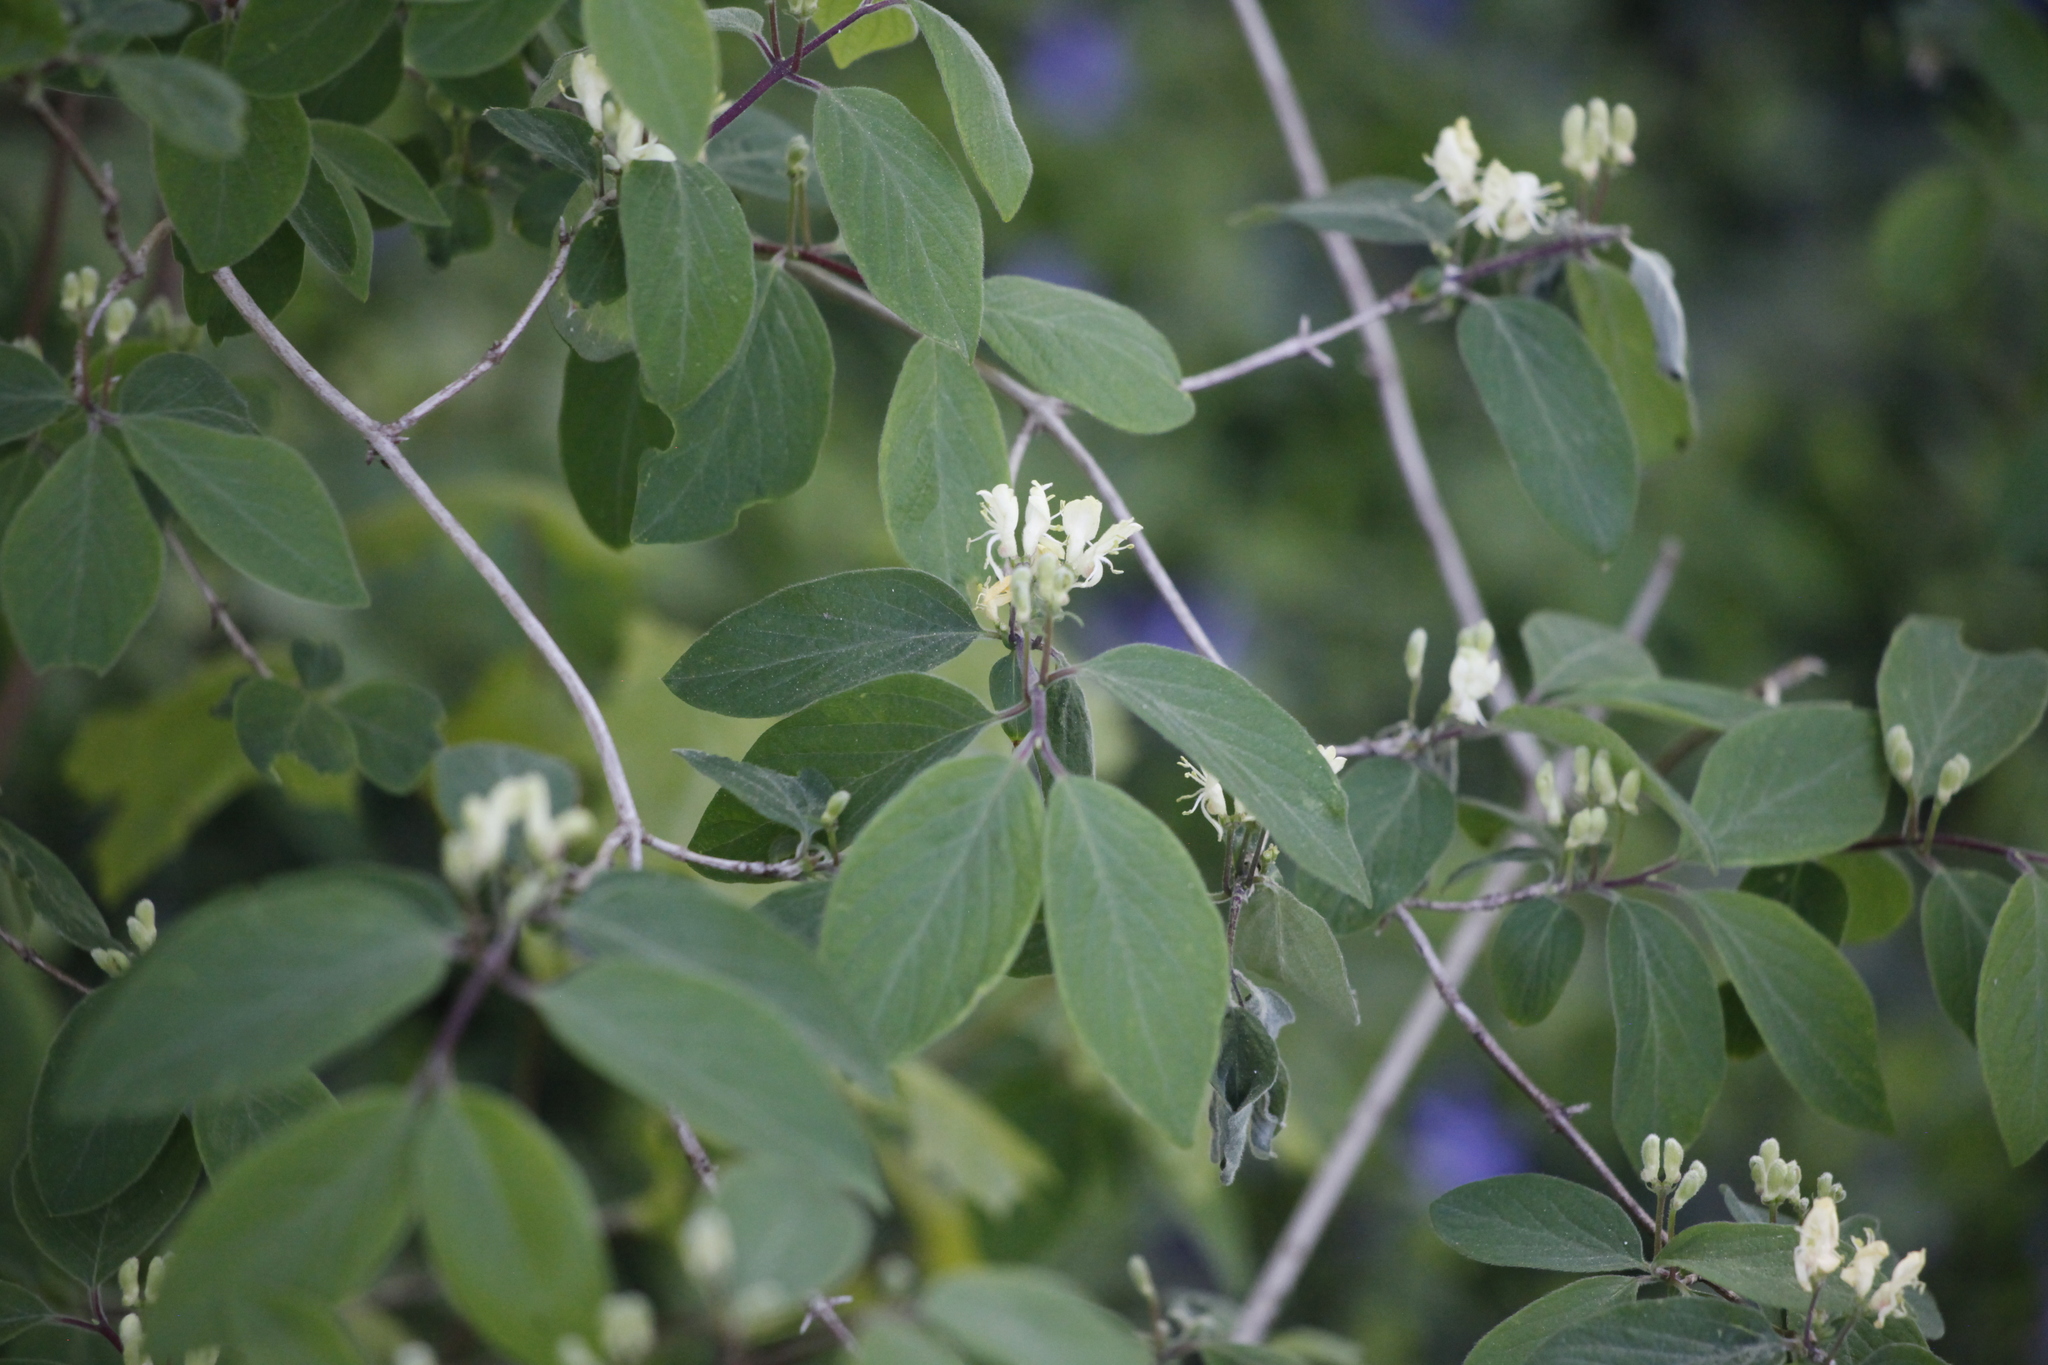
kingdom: Plantae
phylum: Tracheophyta
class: Magnoliopsida
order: Dipsacales
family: Caprifoliaceae
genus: Lonicera
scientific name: Lonicera xylosteum
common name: Fly honeysuckle
